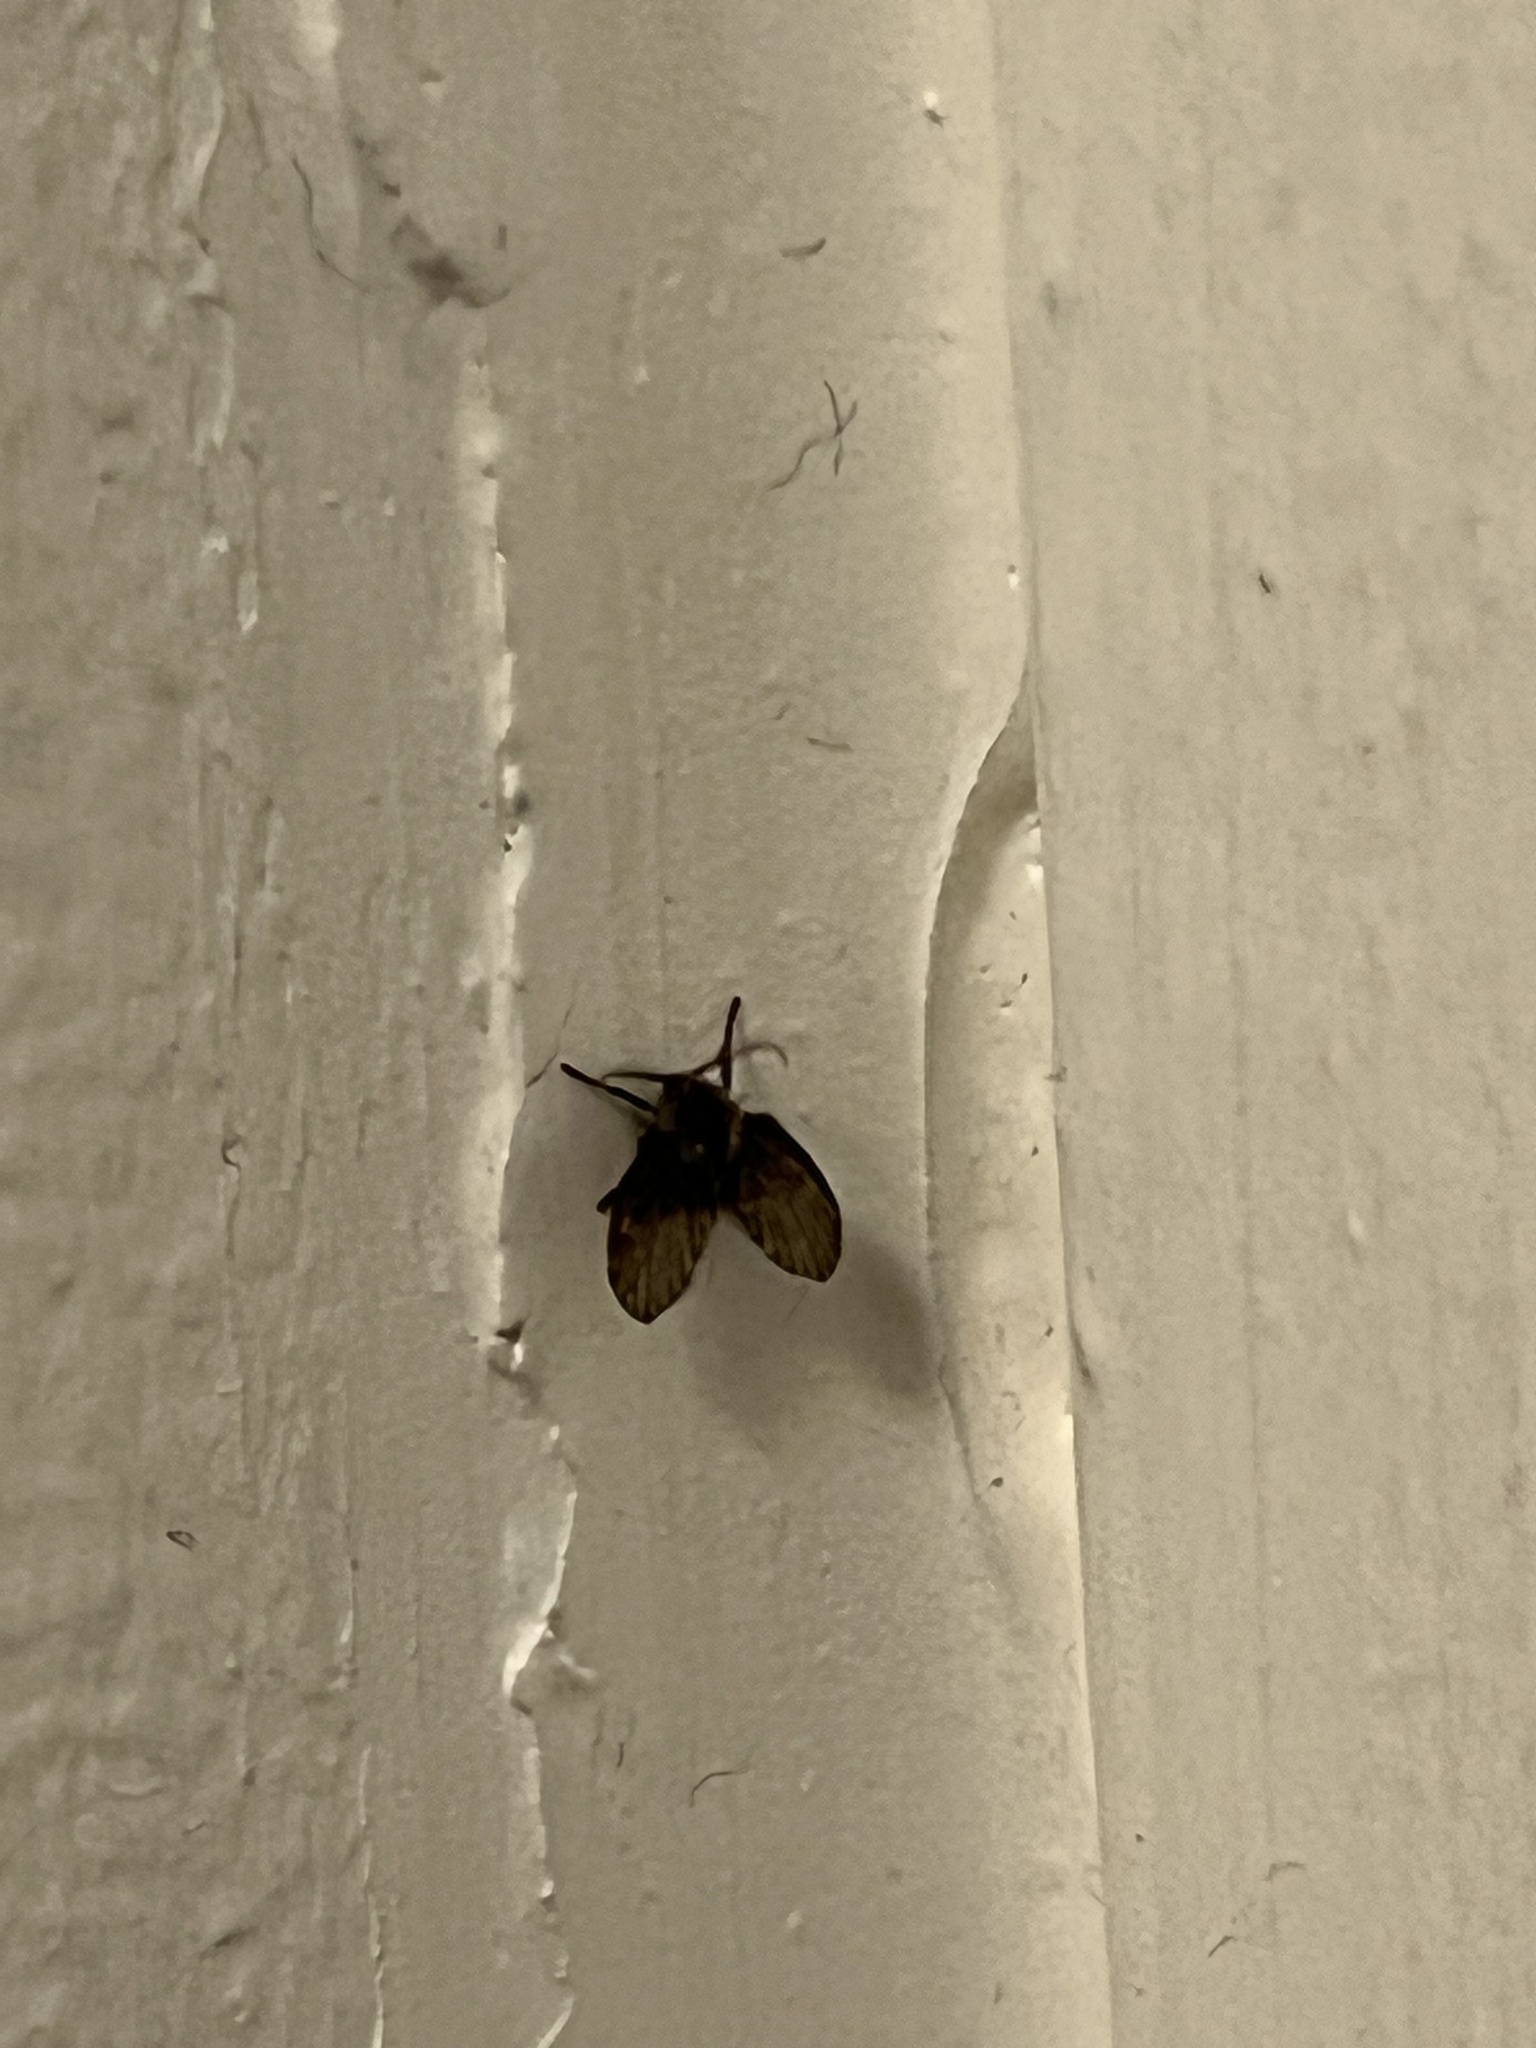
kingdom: Animalia
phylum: Arthropoda
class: Insecta
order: Diptera
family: Psychodidae
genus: Clogmia
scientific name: Clogmia albipunctatus
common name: White-spotted moth fly
